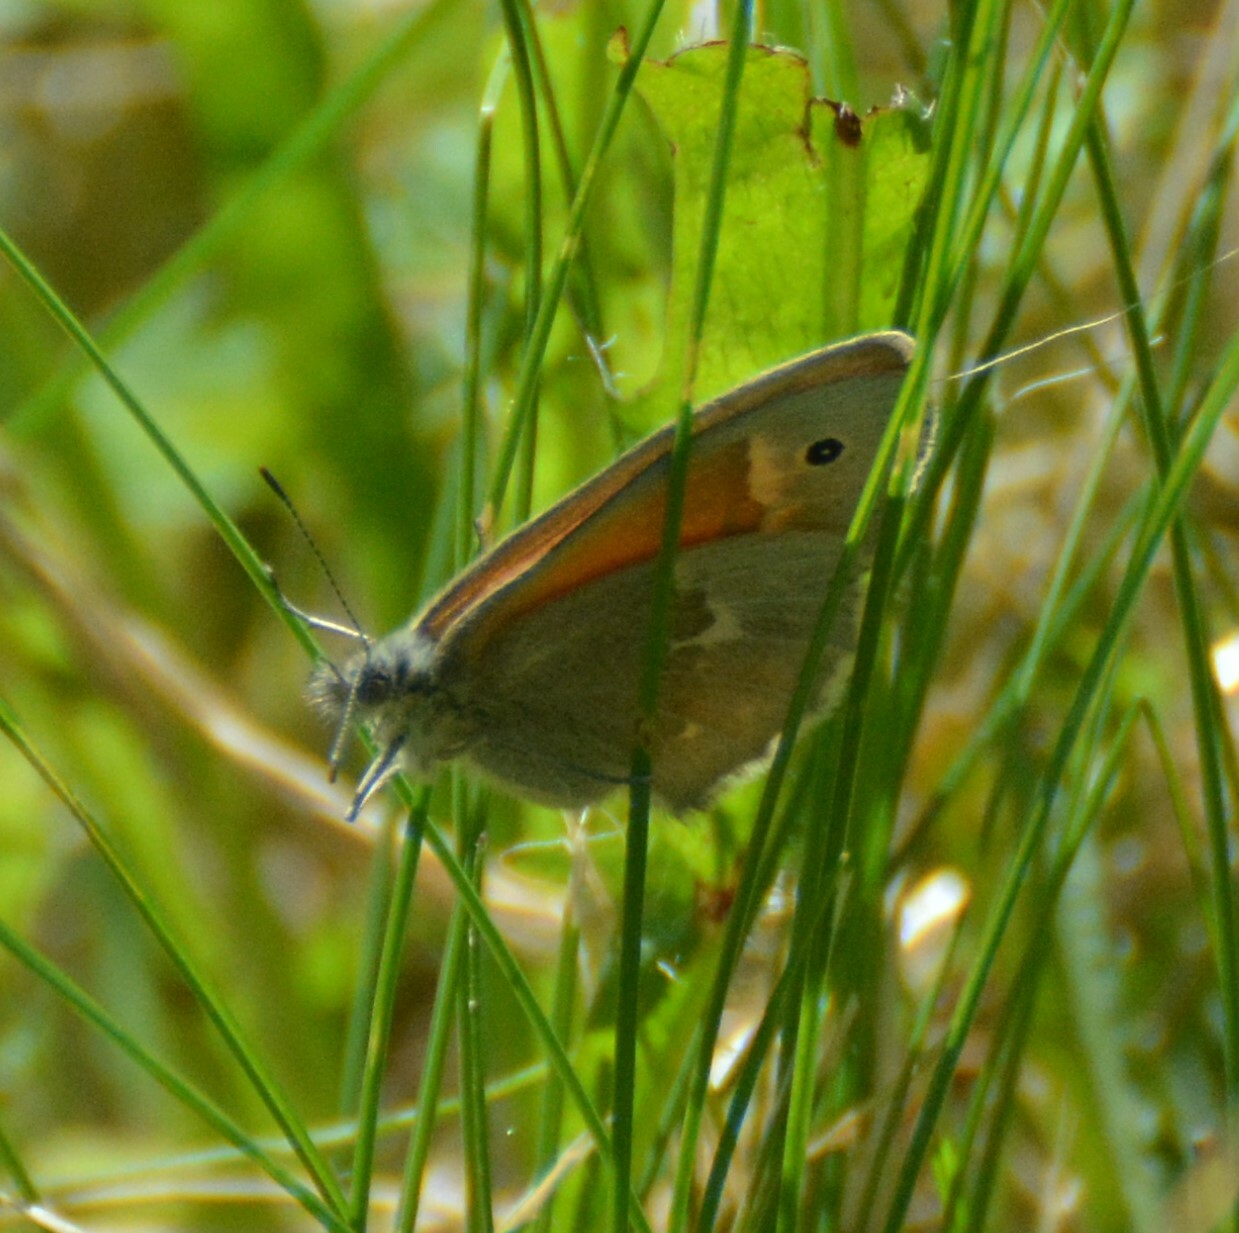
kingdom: Animalia
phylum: Arthropoda
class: Insecta
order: Lepidoptera
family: Nymphalidae
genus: Coenonympha
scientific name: Coenonympha california
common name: Common ringlet
